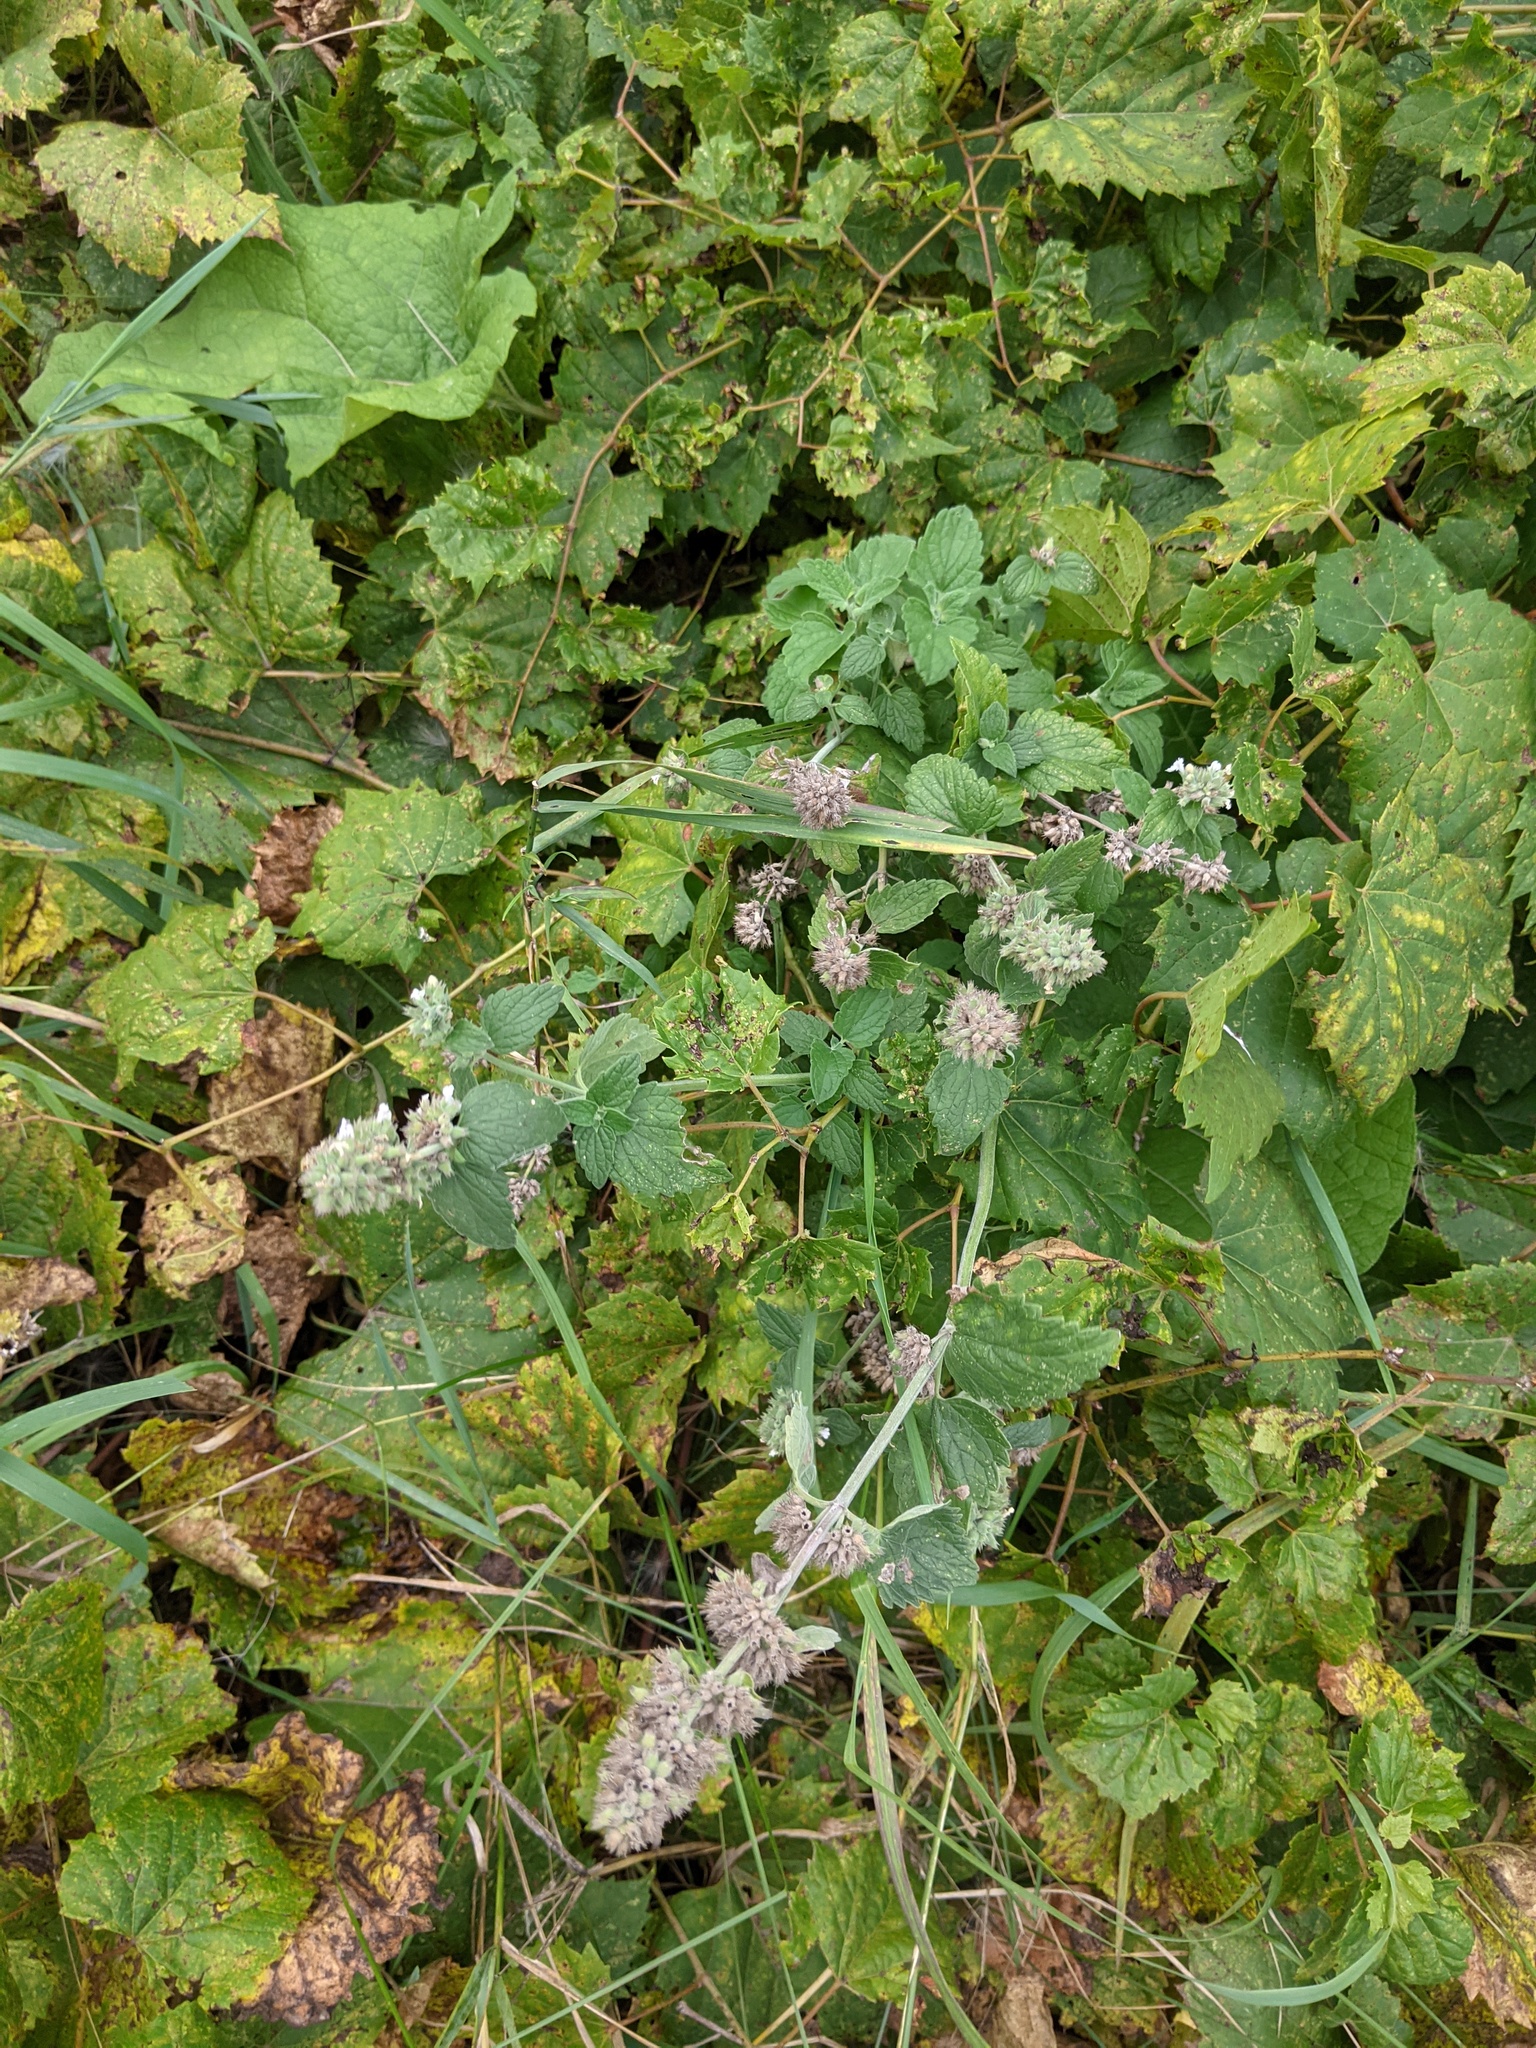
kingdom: Plantae
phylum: Tracheophyta
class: Magnoliopsida
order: Lamiales
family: Lamiaceae
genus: Nepeta
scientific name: Nepeta cataria
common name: Catnip
